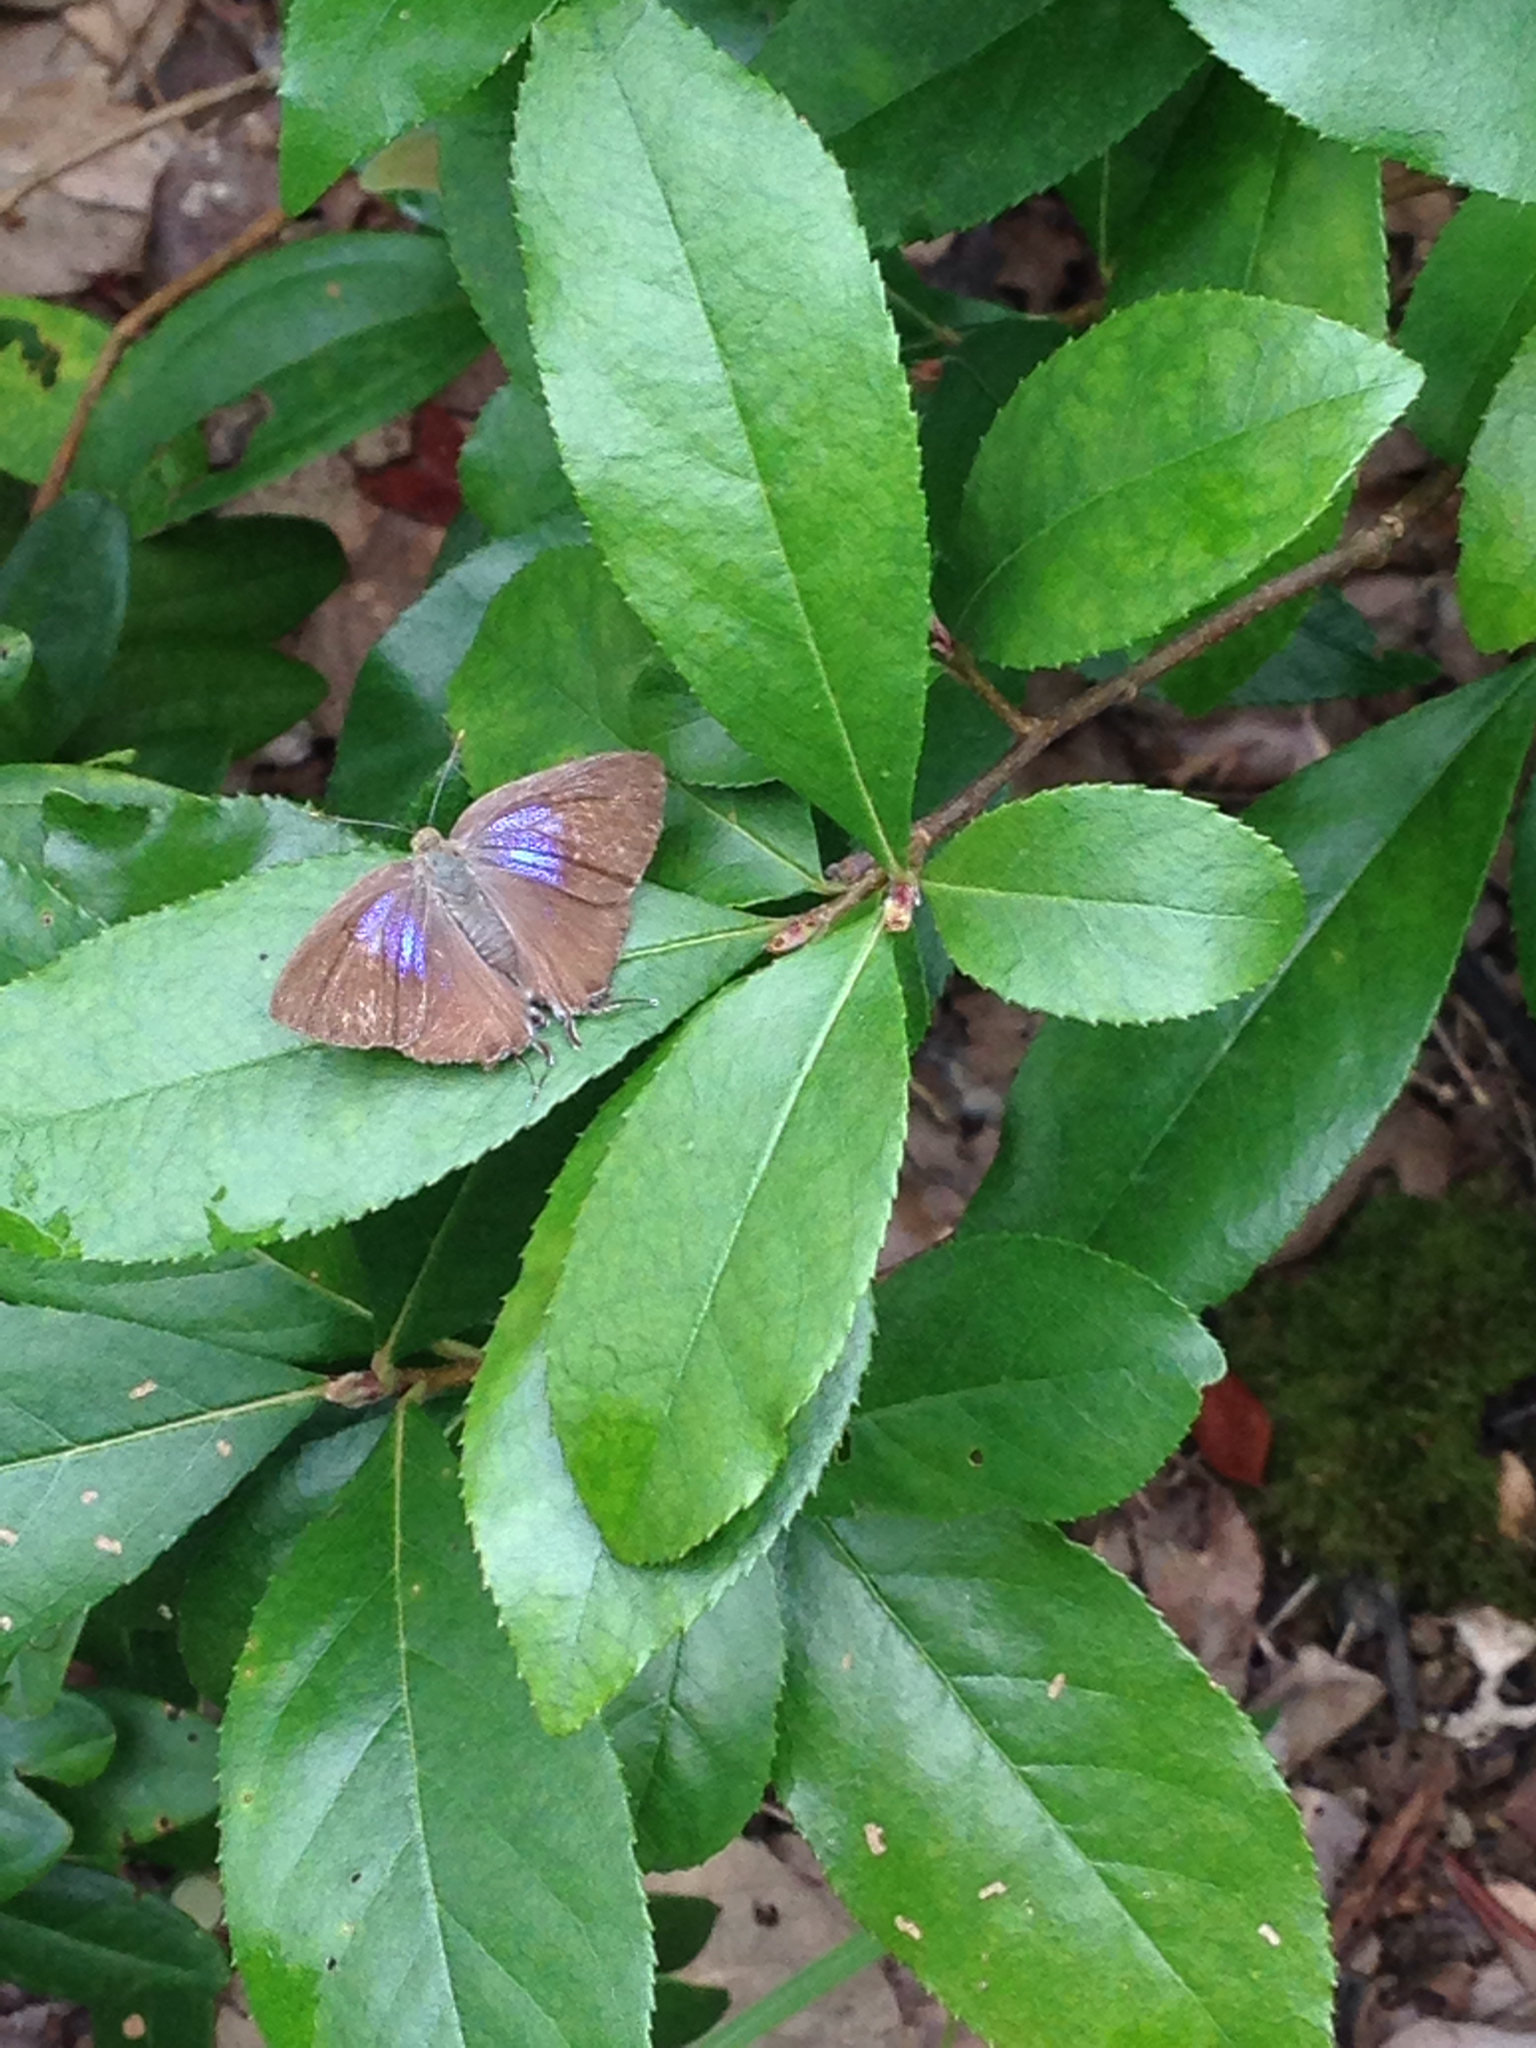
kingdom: Animalia
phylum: Arthropoda
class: Insecta
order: Lepidoptera
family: Lycaenidae
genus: Remelana
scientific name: Remelana jangala
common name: Chocolate royal
